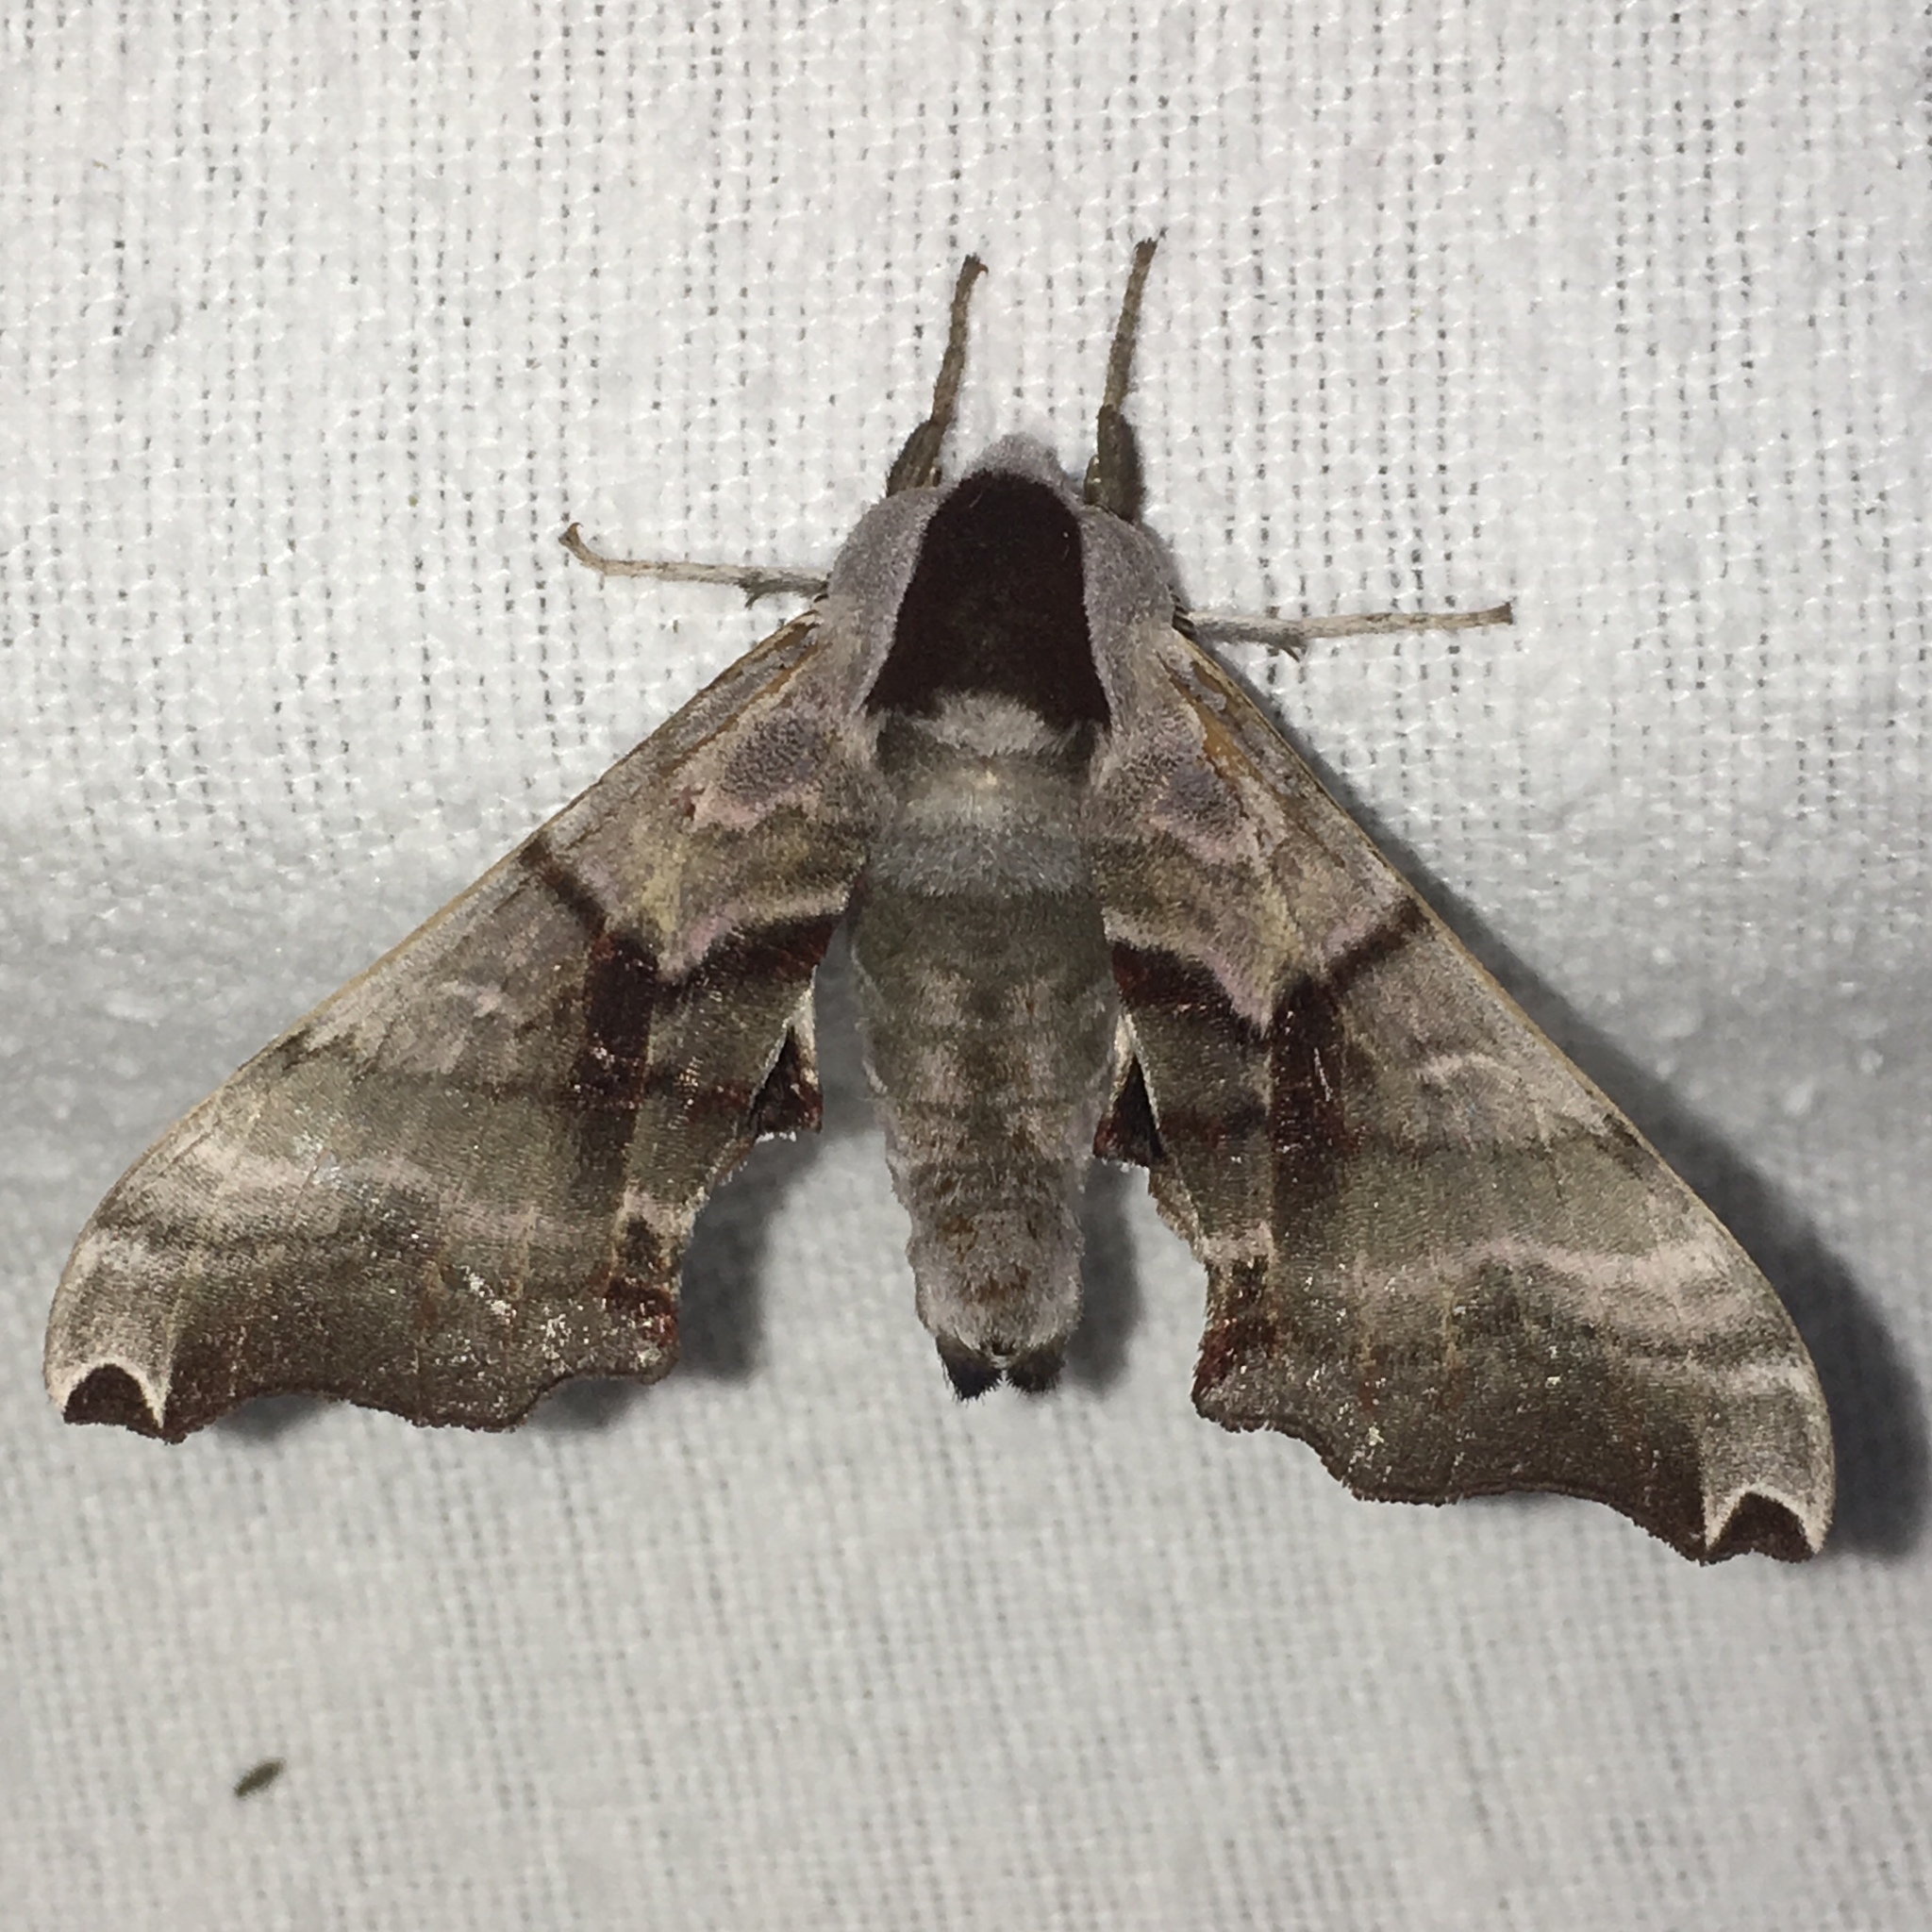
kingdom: Animalia
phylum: Arthropoda
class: Insecta
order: Lepidoptera
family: Sphingidae
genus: Smerinthus
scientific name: Smerinthus jamaicensis
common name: Twin spotted sphinx
